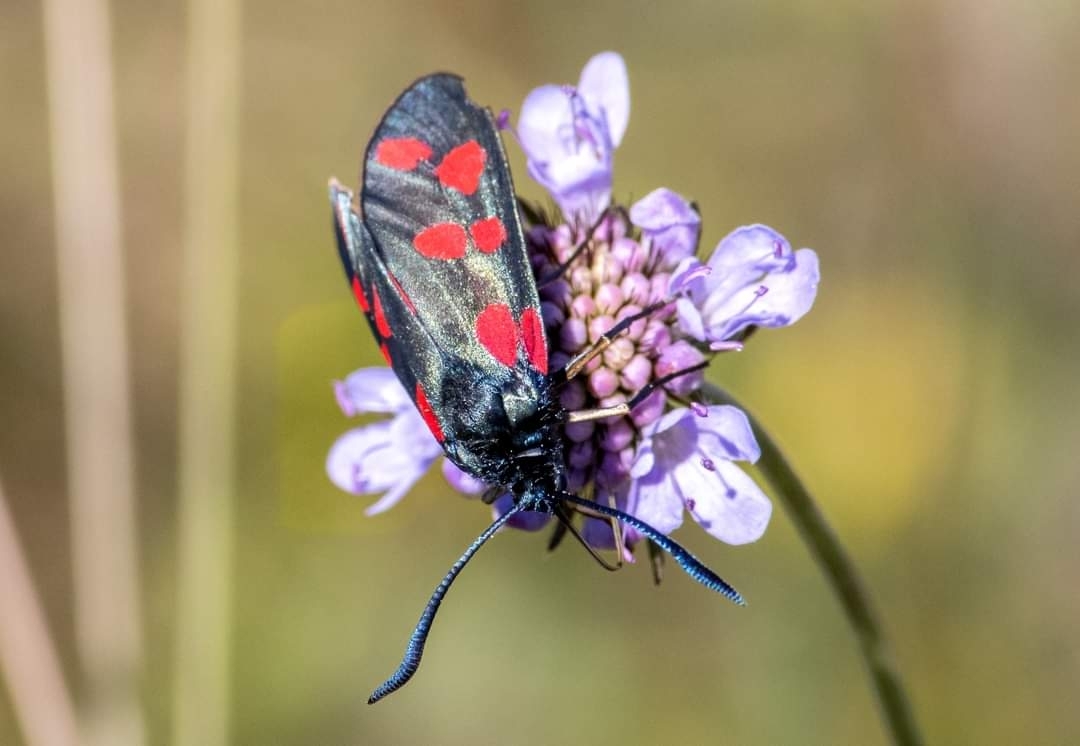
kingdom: Animalia
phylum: Arthropoda
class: Insecta
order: Lepidoptera
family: Zygaenidae
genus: Zygaena
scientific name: Zygaena filipendulae
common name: Six-spot burnet
